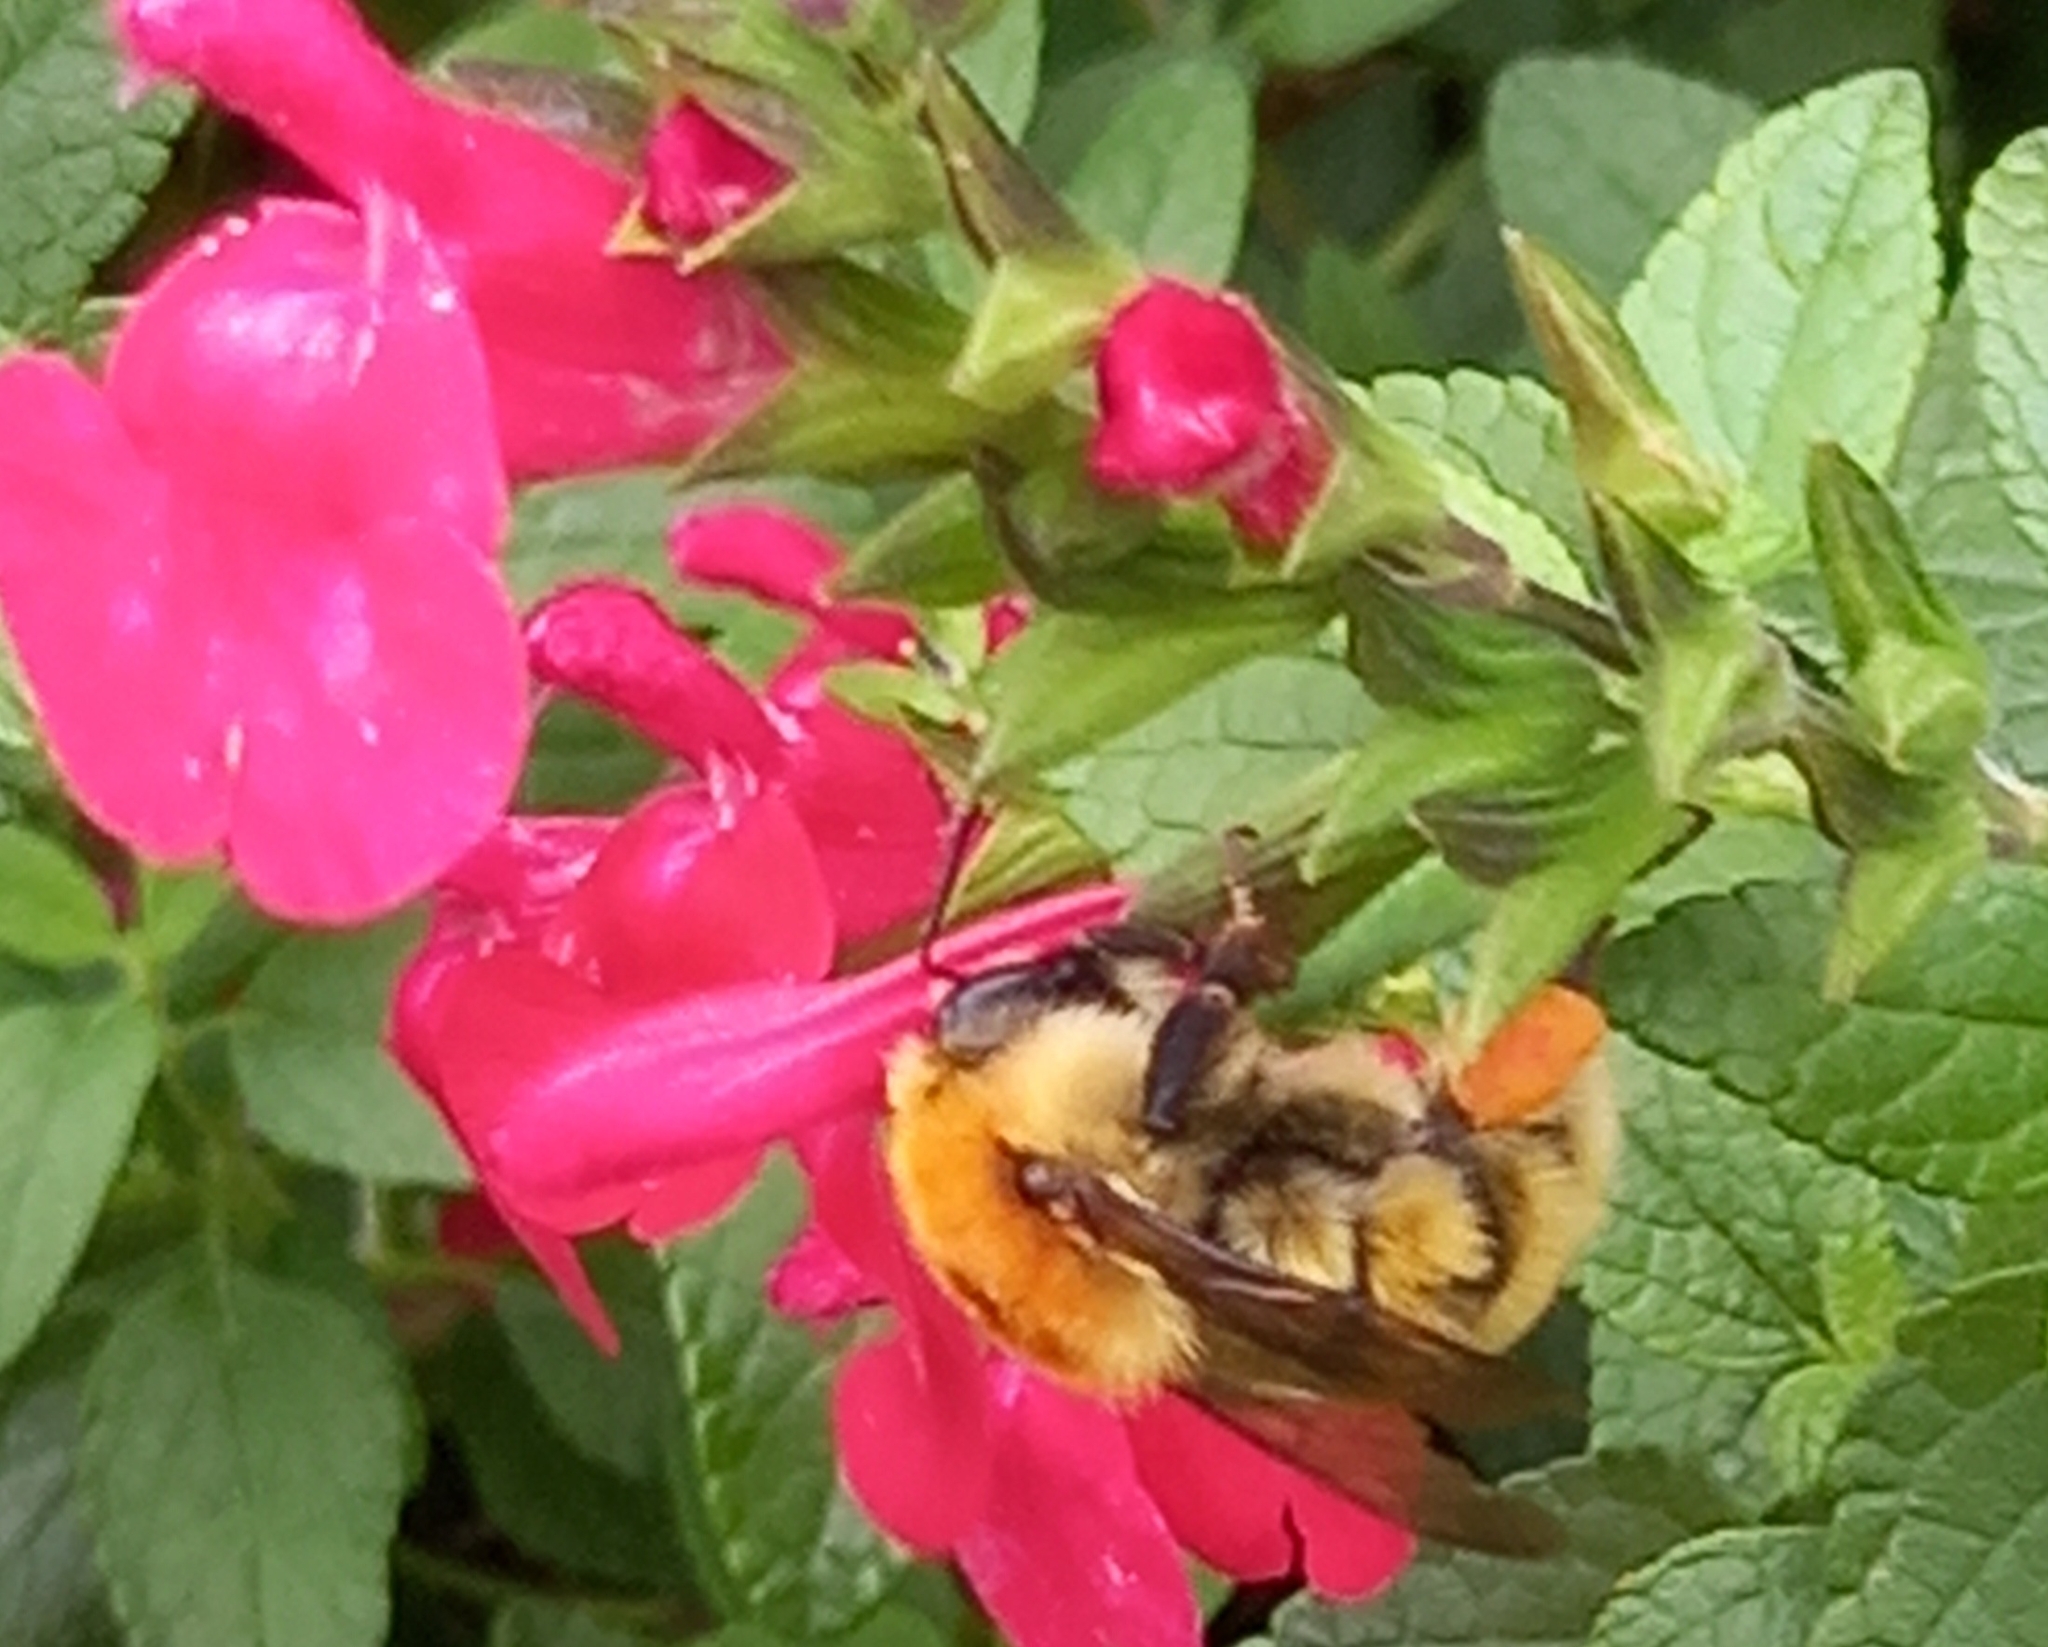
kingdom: Animalia
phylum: Arthropoda
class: Insecta
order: Hymenoptera
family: Apidae
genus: Bombus
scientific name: Bombus pascuorum
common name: Common carder bee
